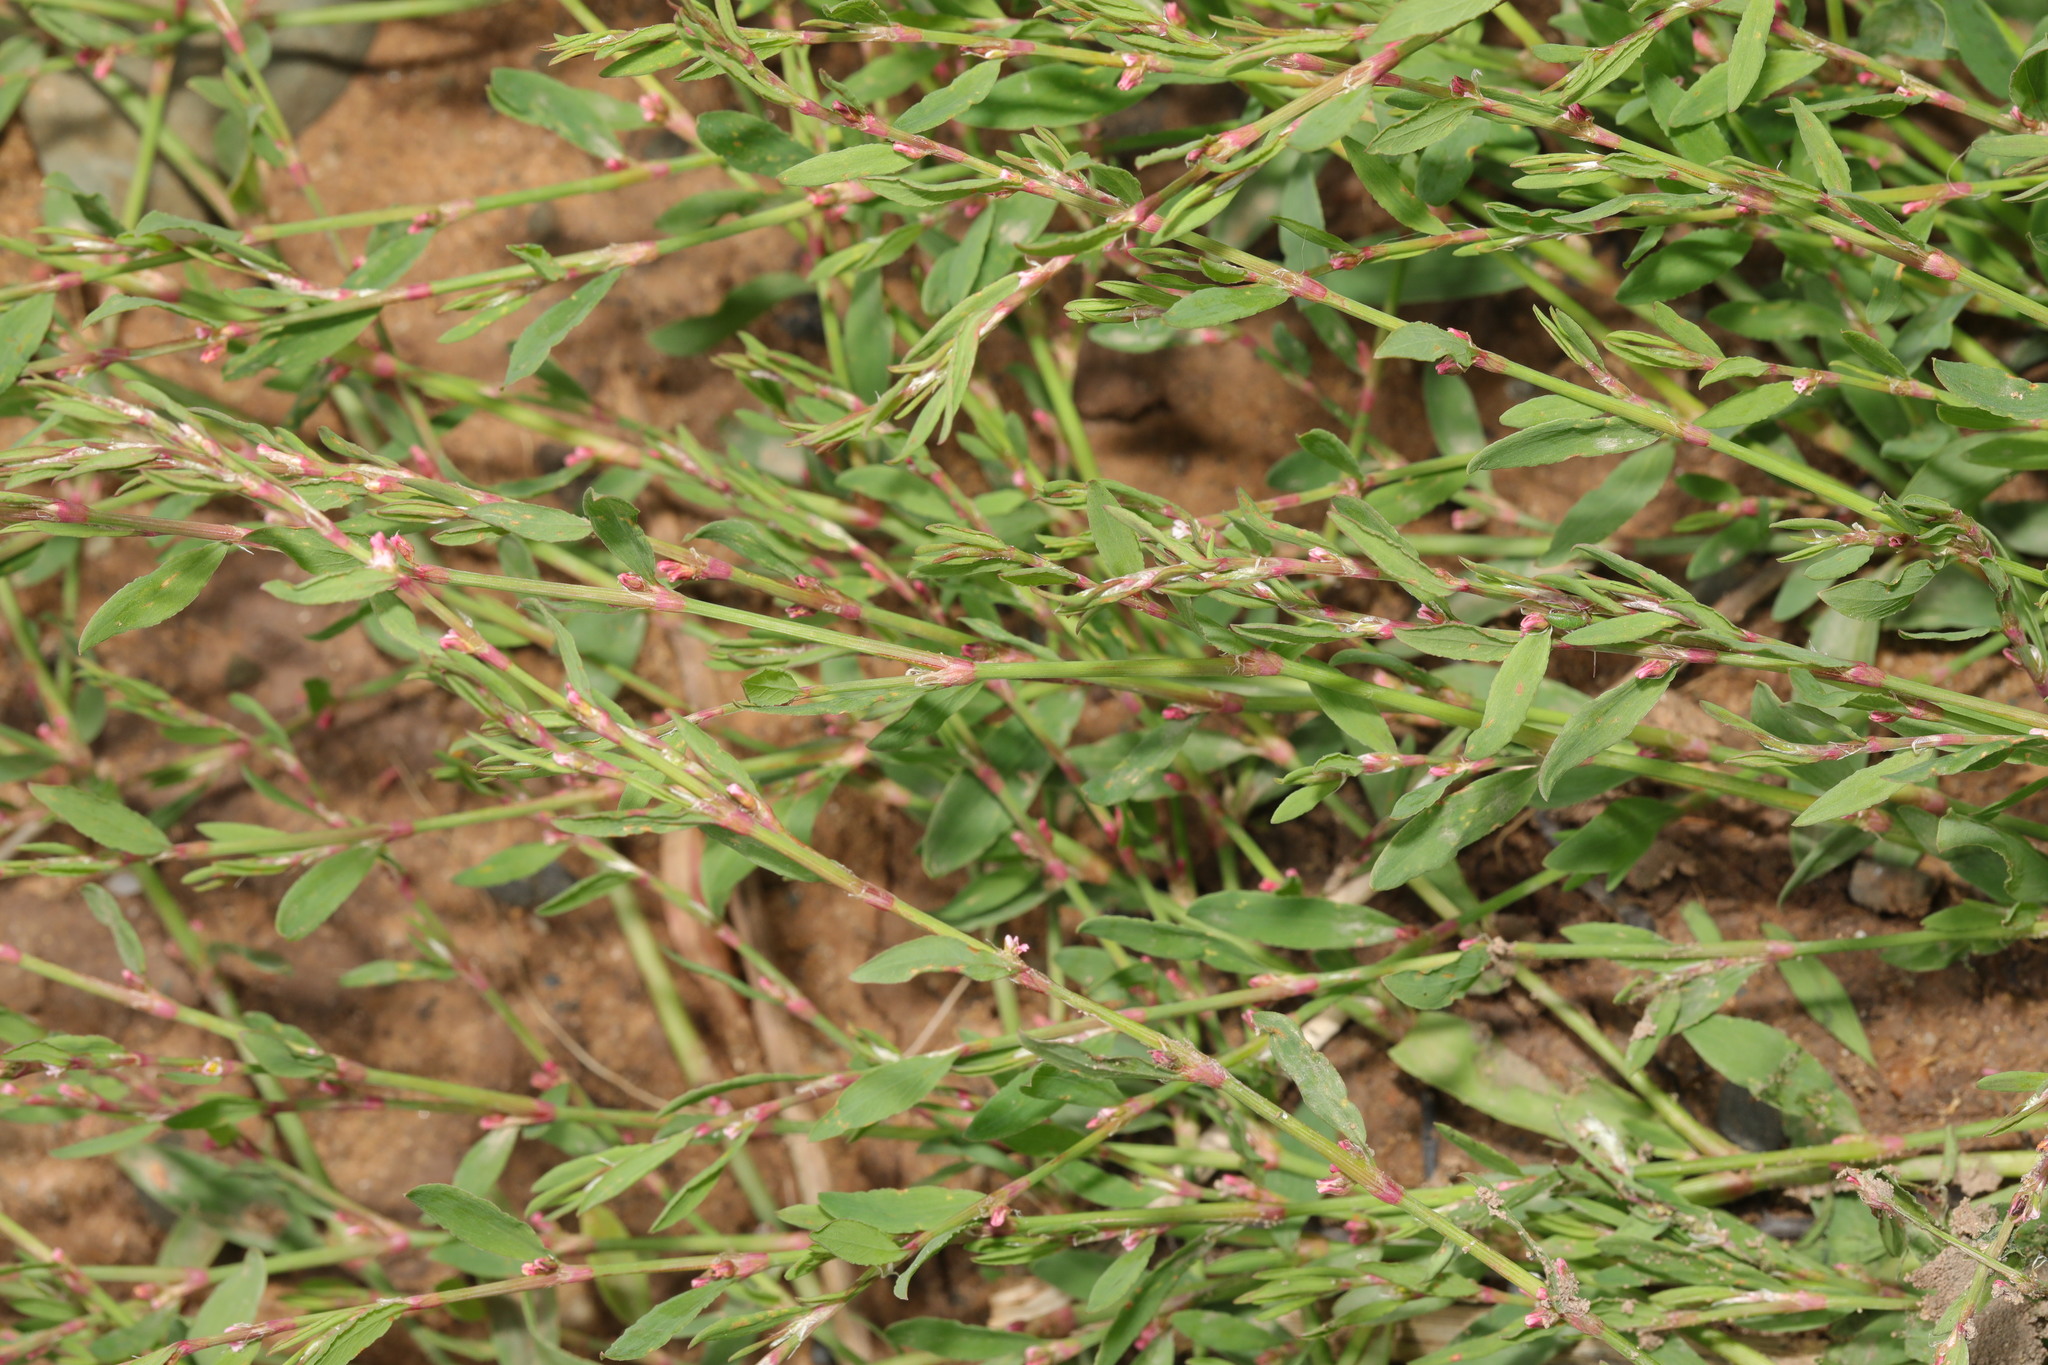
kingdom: Plantae
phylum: Tracheophyta
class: Magnoliopsida
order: Caryophyllales
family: Polygonaceae
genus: Polygonum
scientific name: Polygonum aviculare
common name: Prostrate knotweed
